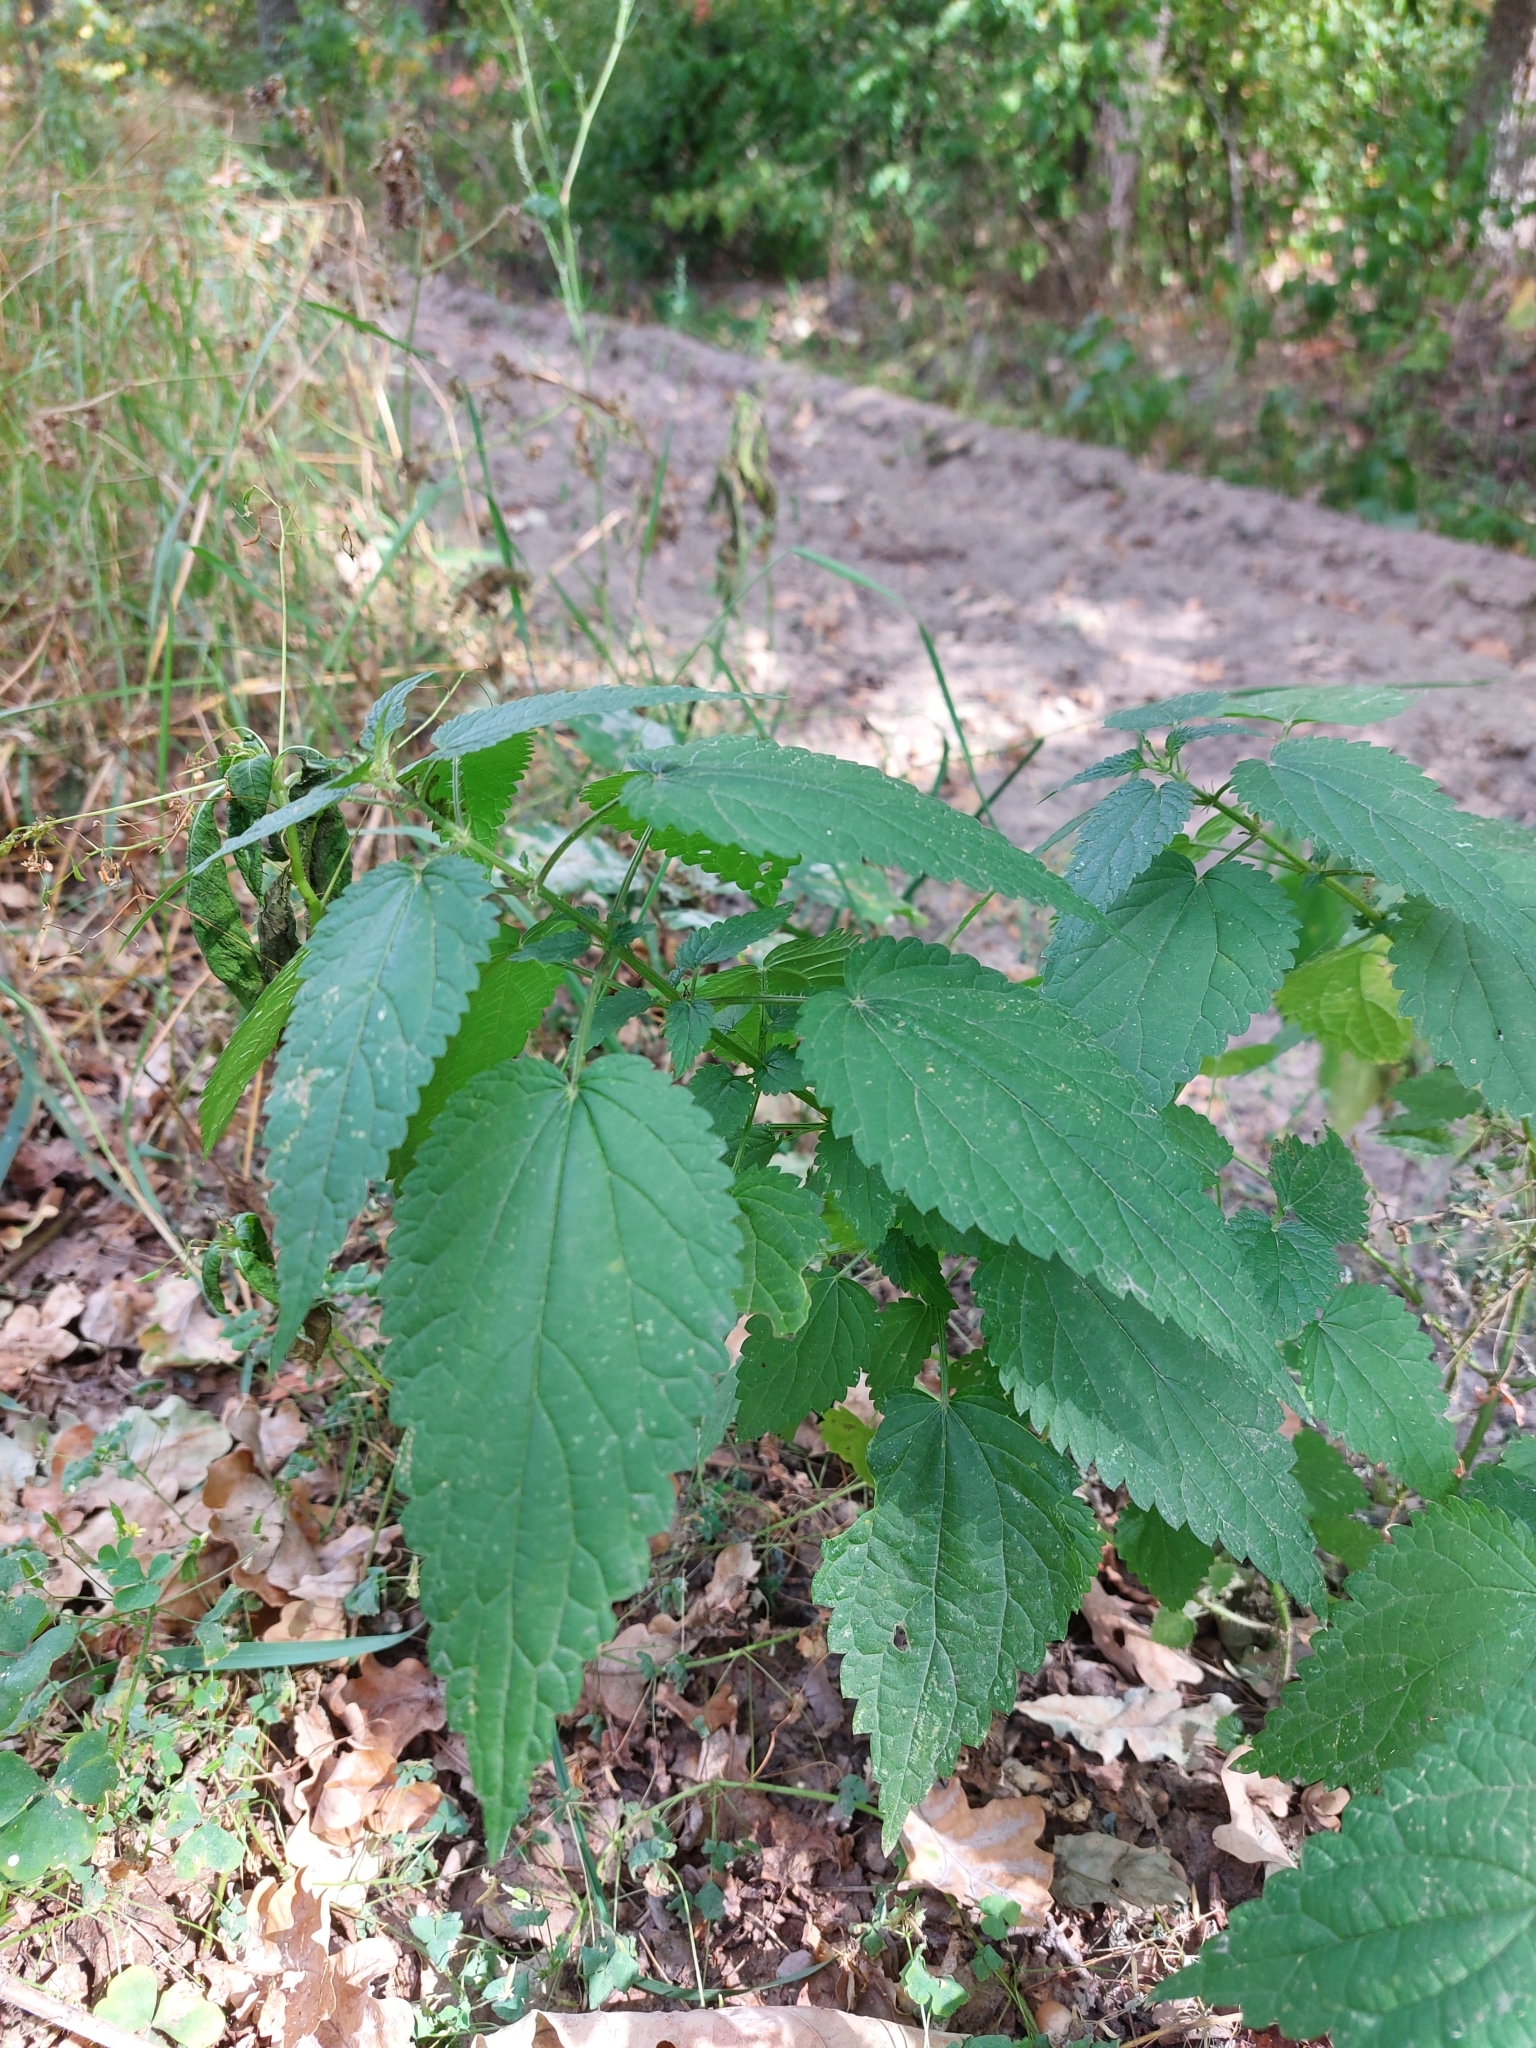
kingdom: Plantae
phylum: Tracheophyta
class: Magnoliopsida
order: Rosales
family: Urticaceae
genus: Urtica
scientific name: Urtica dioica
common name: Common nettle
